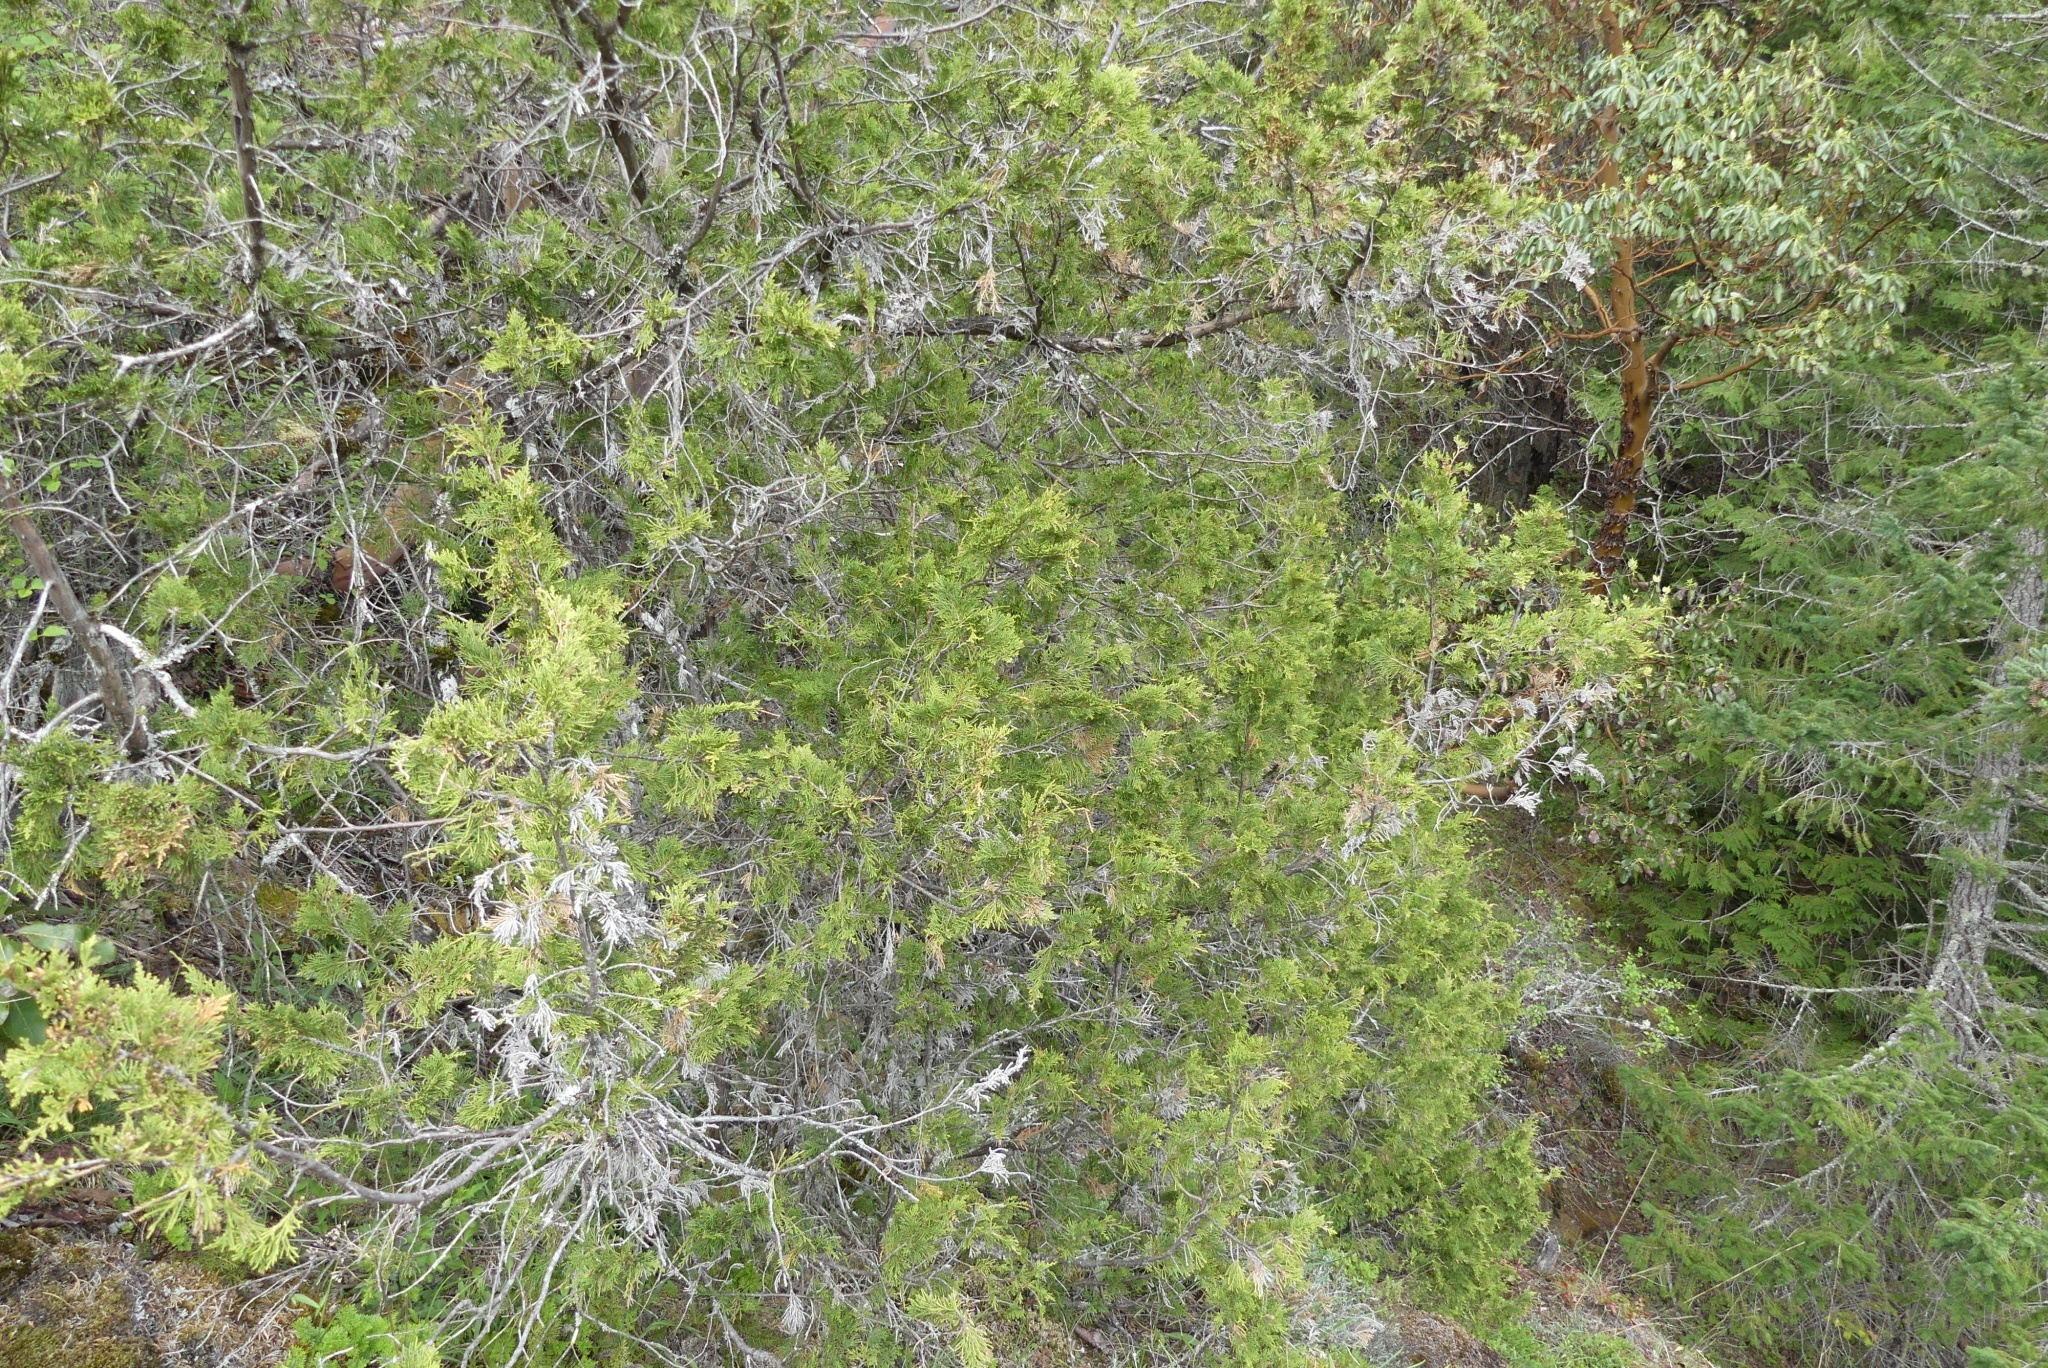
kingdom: Plantae
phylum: Tracheophyta
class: Pinopsida
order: Pinales
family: Cupressaceae
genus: Juniperus
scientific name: Juniperus scopulorum
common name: Rocky mountain juniper
